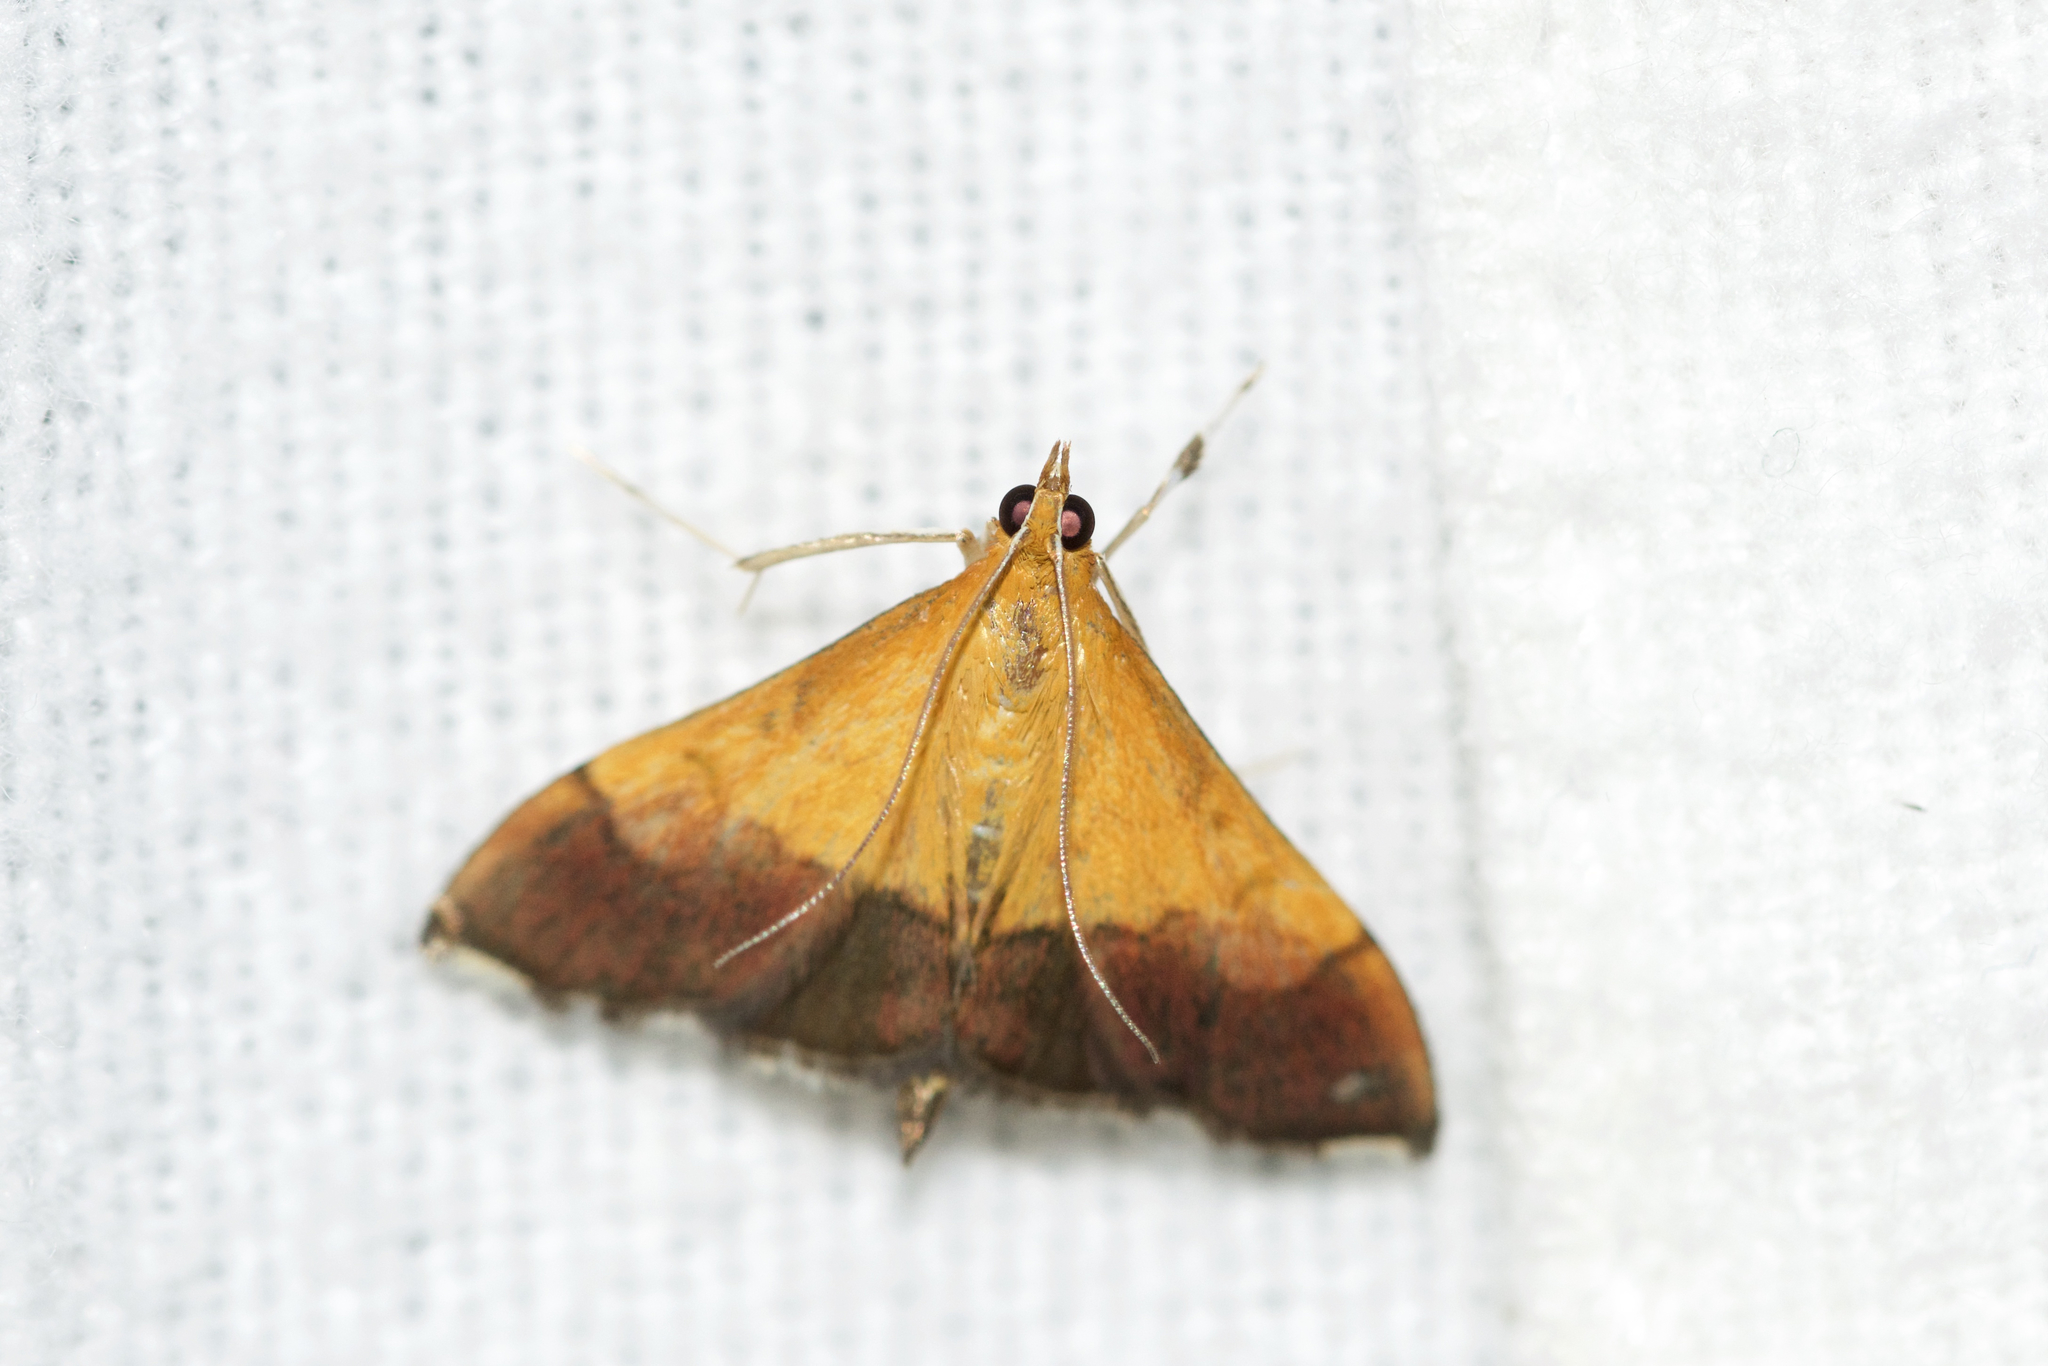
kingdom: Animalia
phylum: Arthropoda
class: Insecta
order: Lepidoptera
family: Crambidae
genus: Pyrausta
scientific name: Pyrausta bicoloralis
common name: Bicolored pyrausta moth
